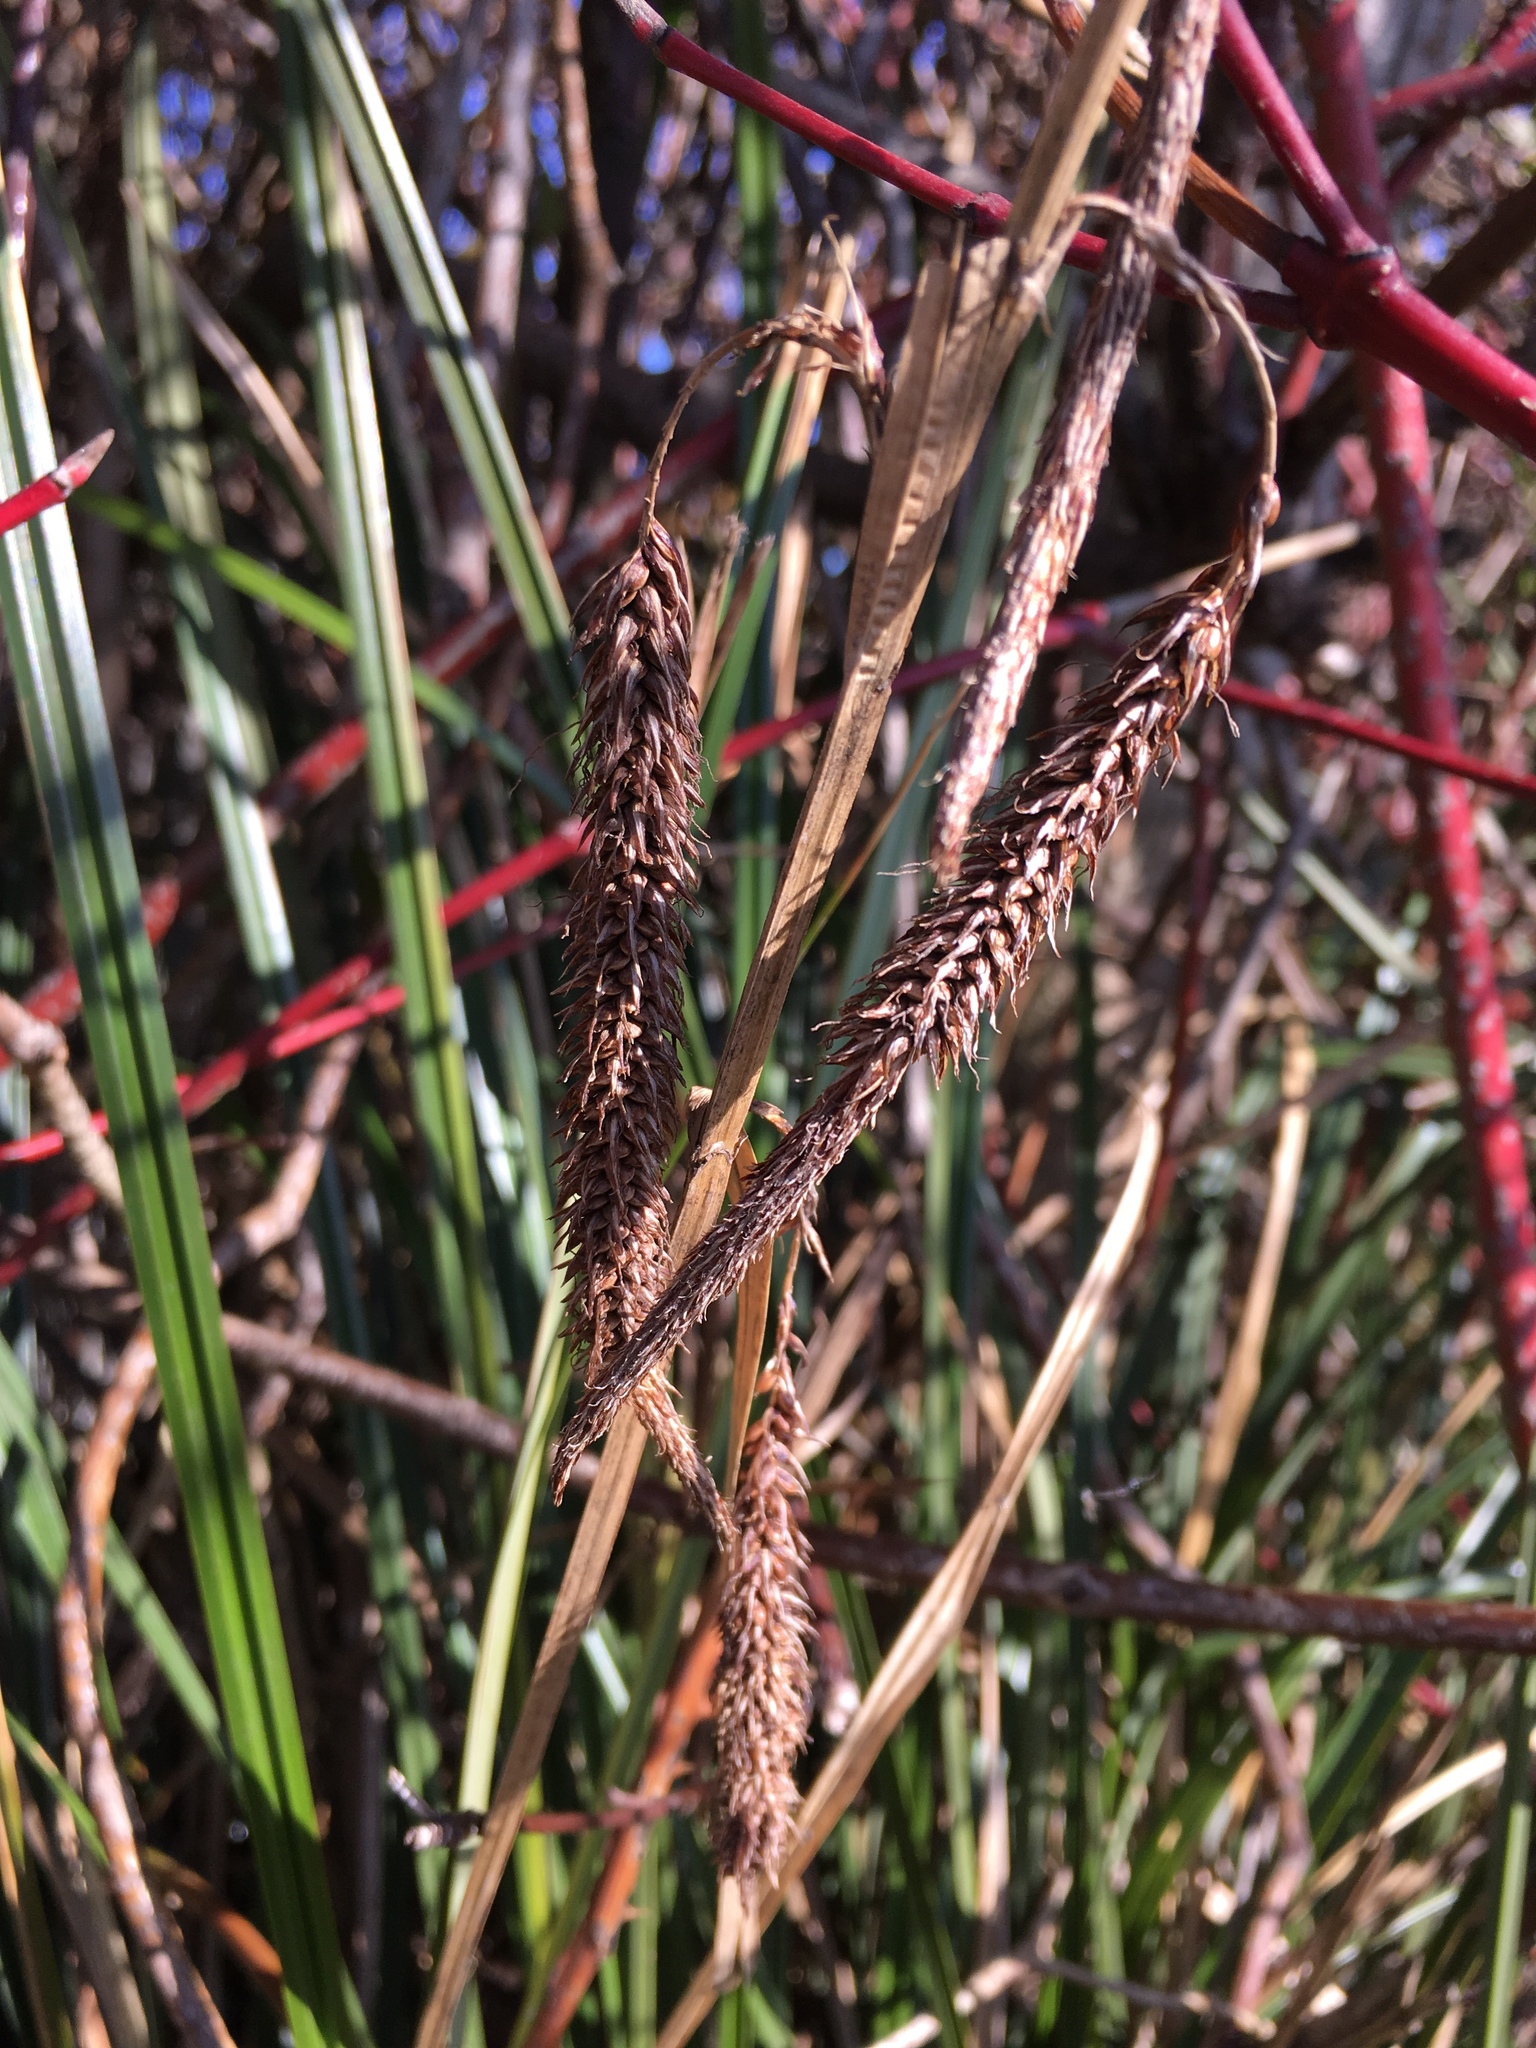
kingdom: Plantae
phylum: Tracheophyta
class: Liliopsida
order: Poales
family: Cyperaceae
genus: Carex
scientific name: Carex obnupta
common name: Slough sedge
